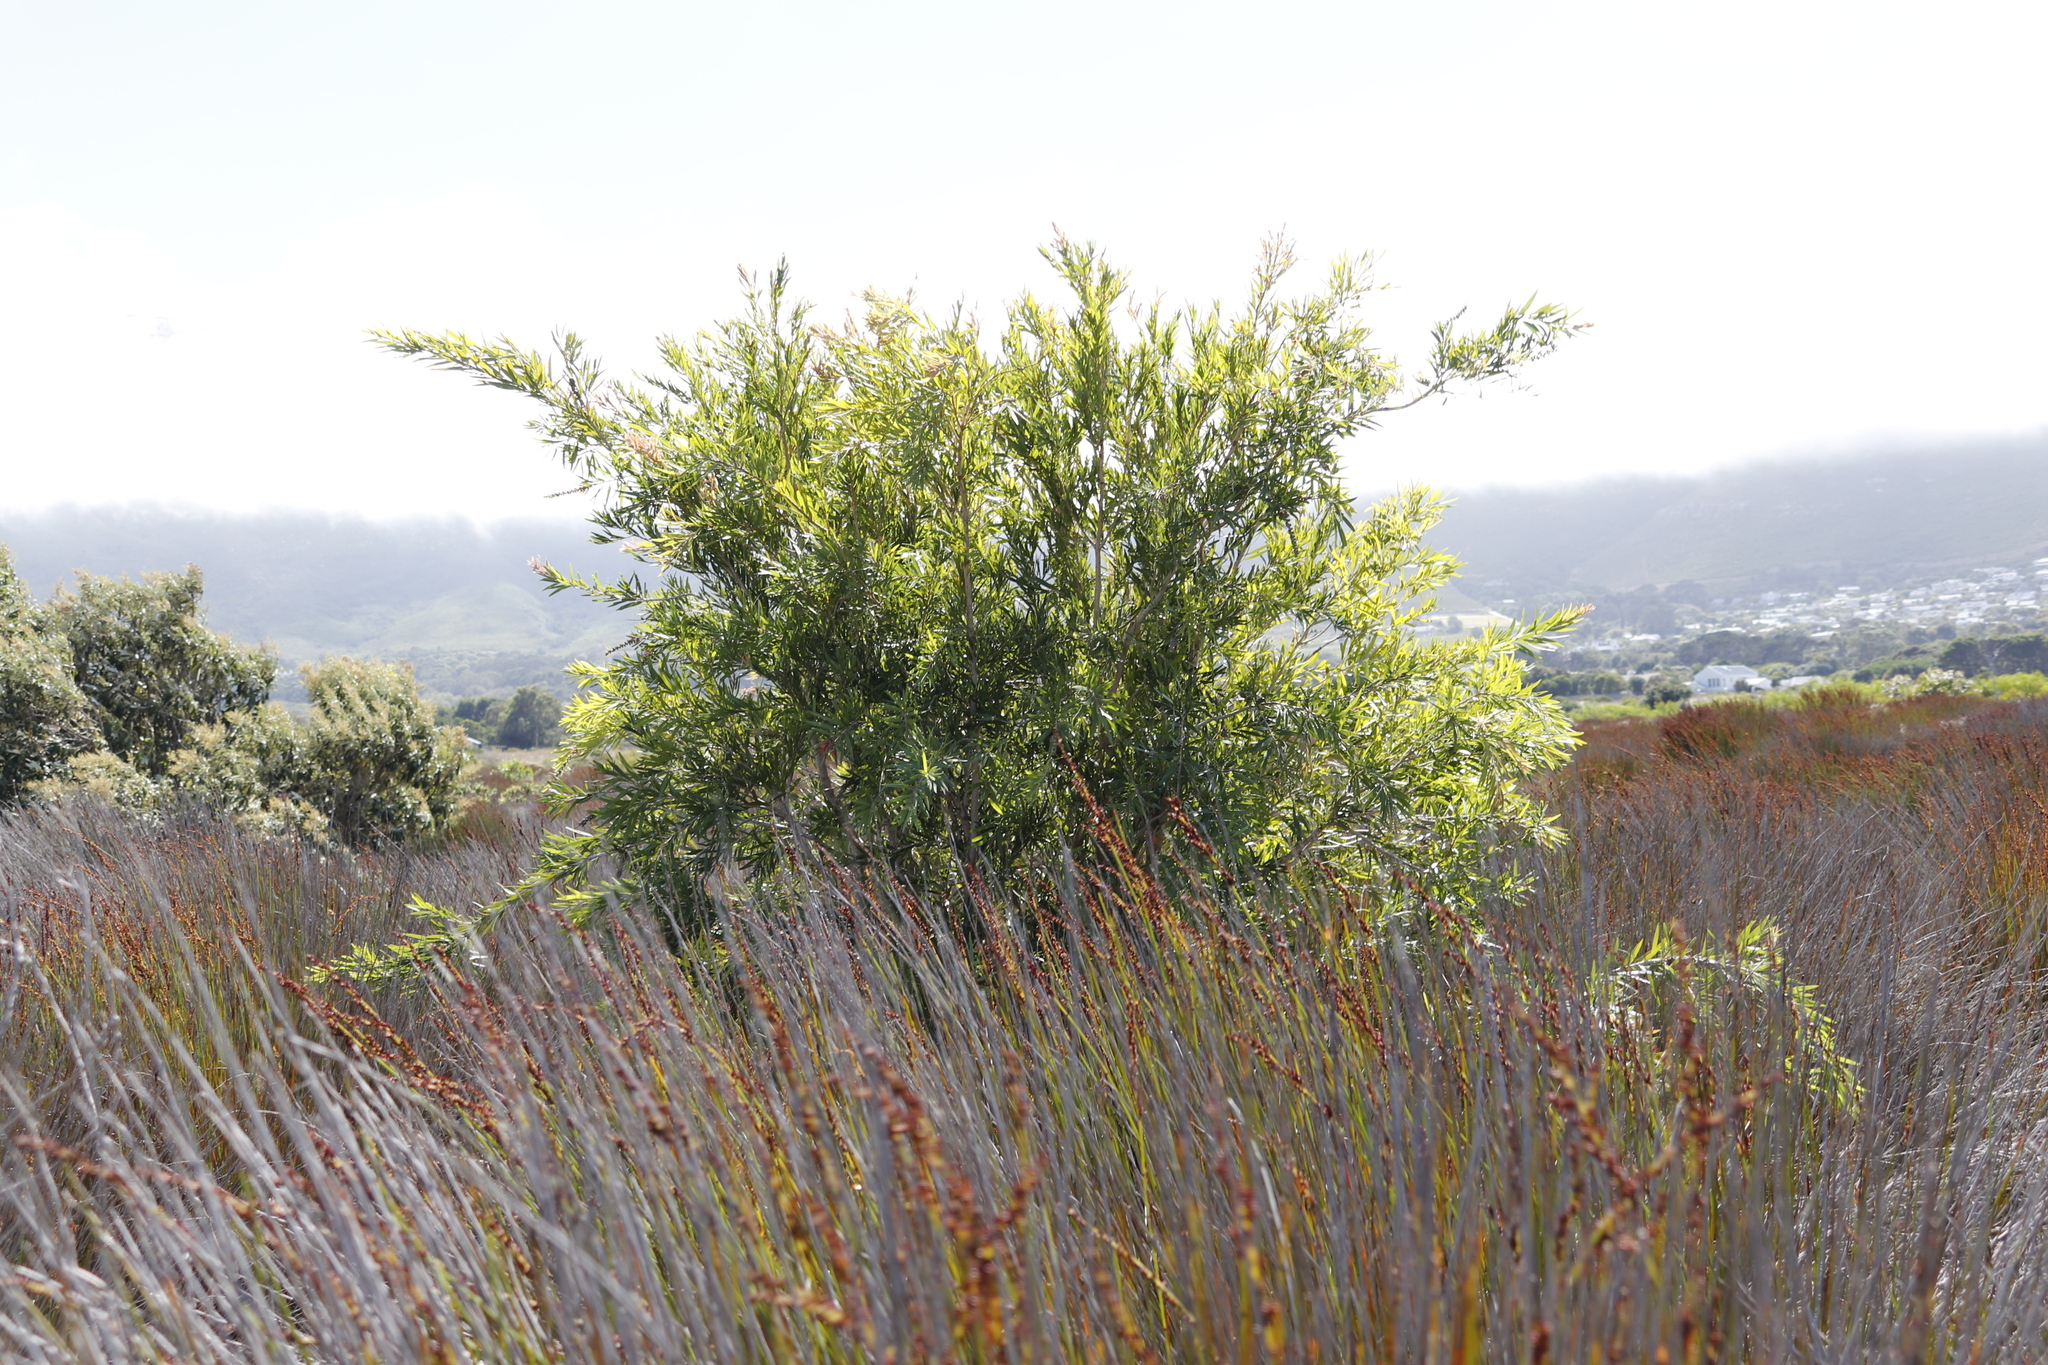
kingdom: Plantae
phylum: Tracheophyta
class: Magnoliopsida
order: Myrtales
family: Myrtaceae
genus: Callistemon
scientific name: Callistemon viminalis
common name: Drooping bottlebrush
